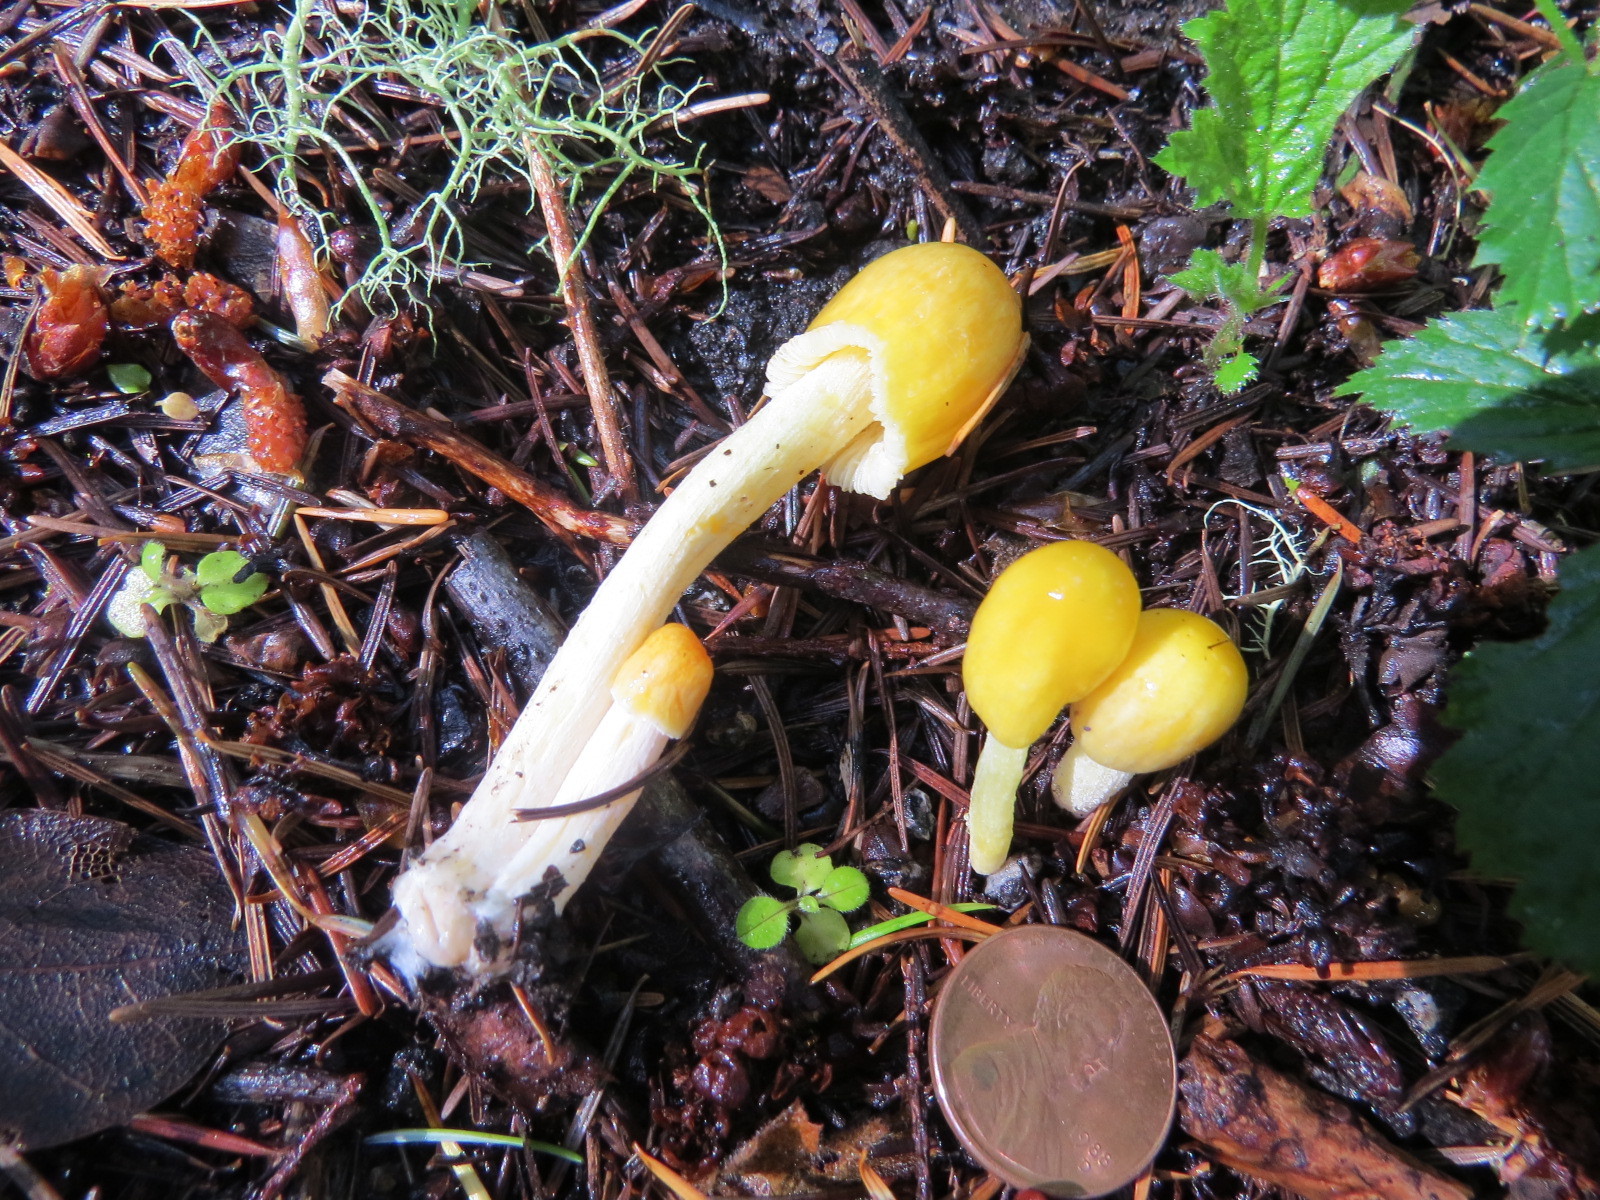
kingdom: Fungi
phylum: Basidiomycota
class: Agaricomycetes
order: Agaricales
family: Bolbitiaceae
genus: Bolbitius
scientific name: Bolbitius titubans
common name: Yellow fieldcap
